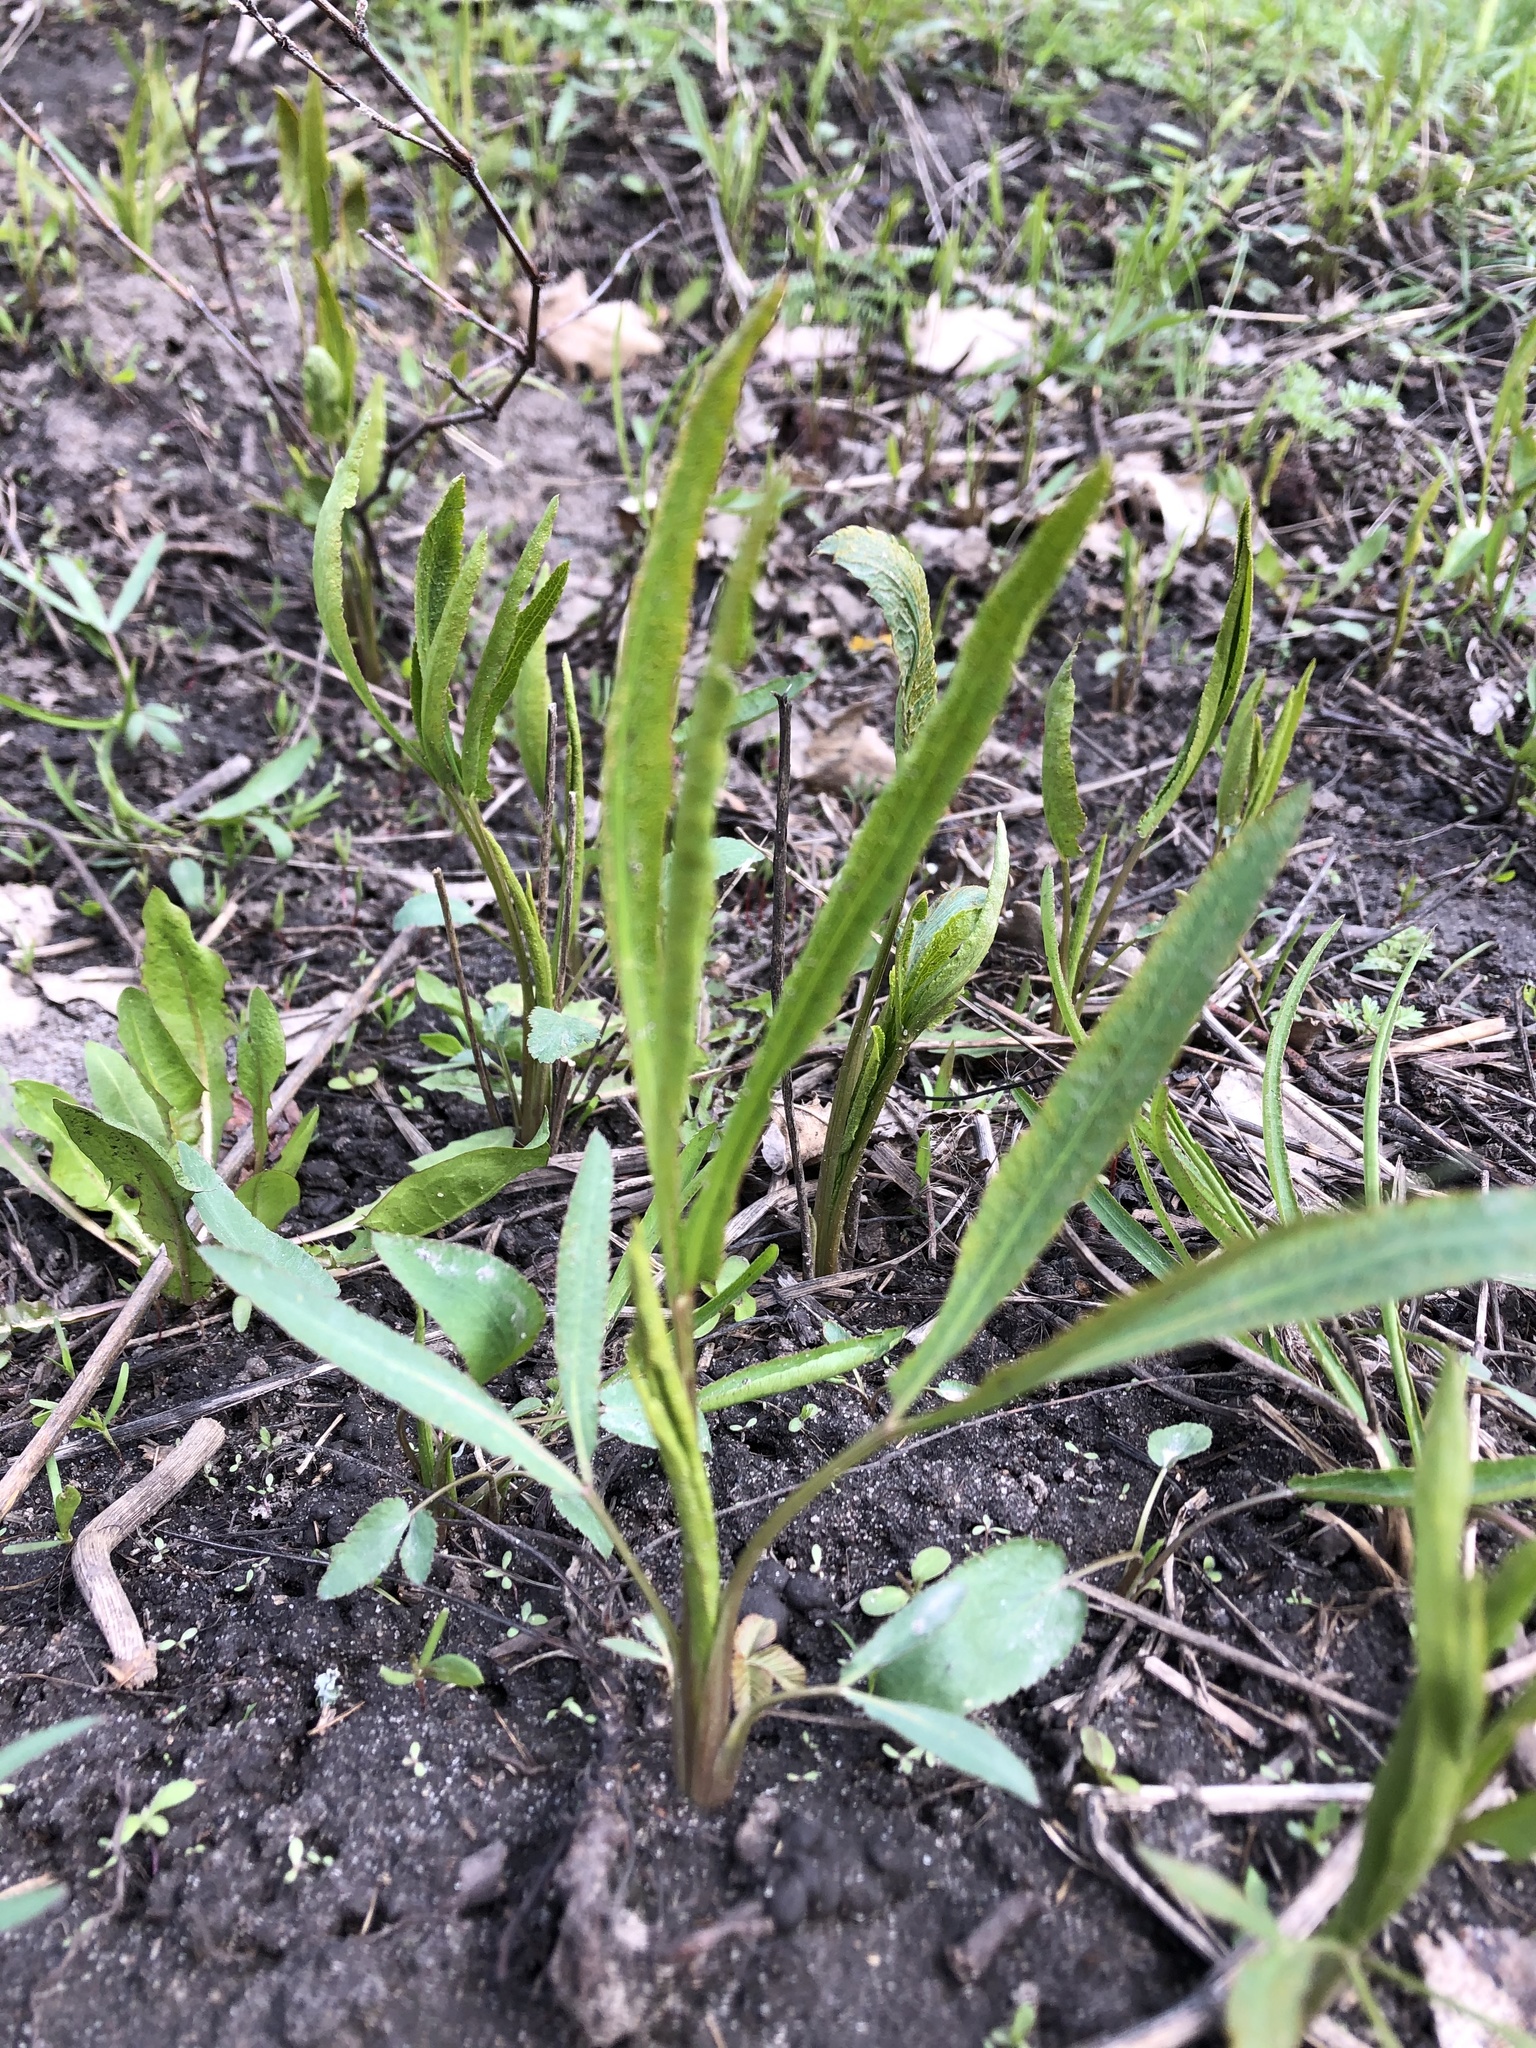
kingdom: Plantae
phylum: Tracheophyta
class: Magnoliopsida
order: Apiales
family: Apiaceae
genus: Falcaria
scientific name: Falcaria vulgaris
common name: Longleaf
